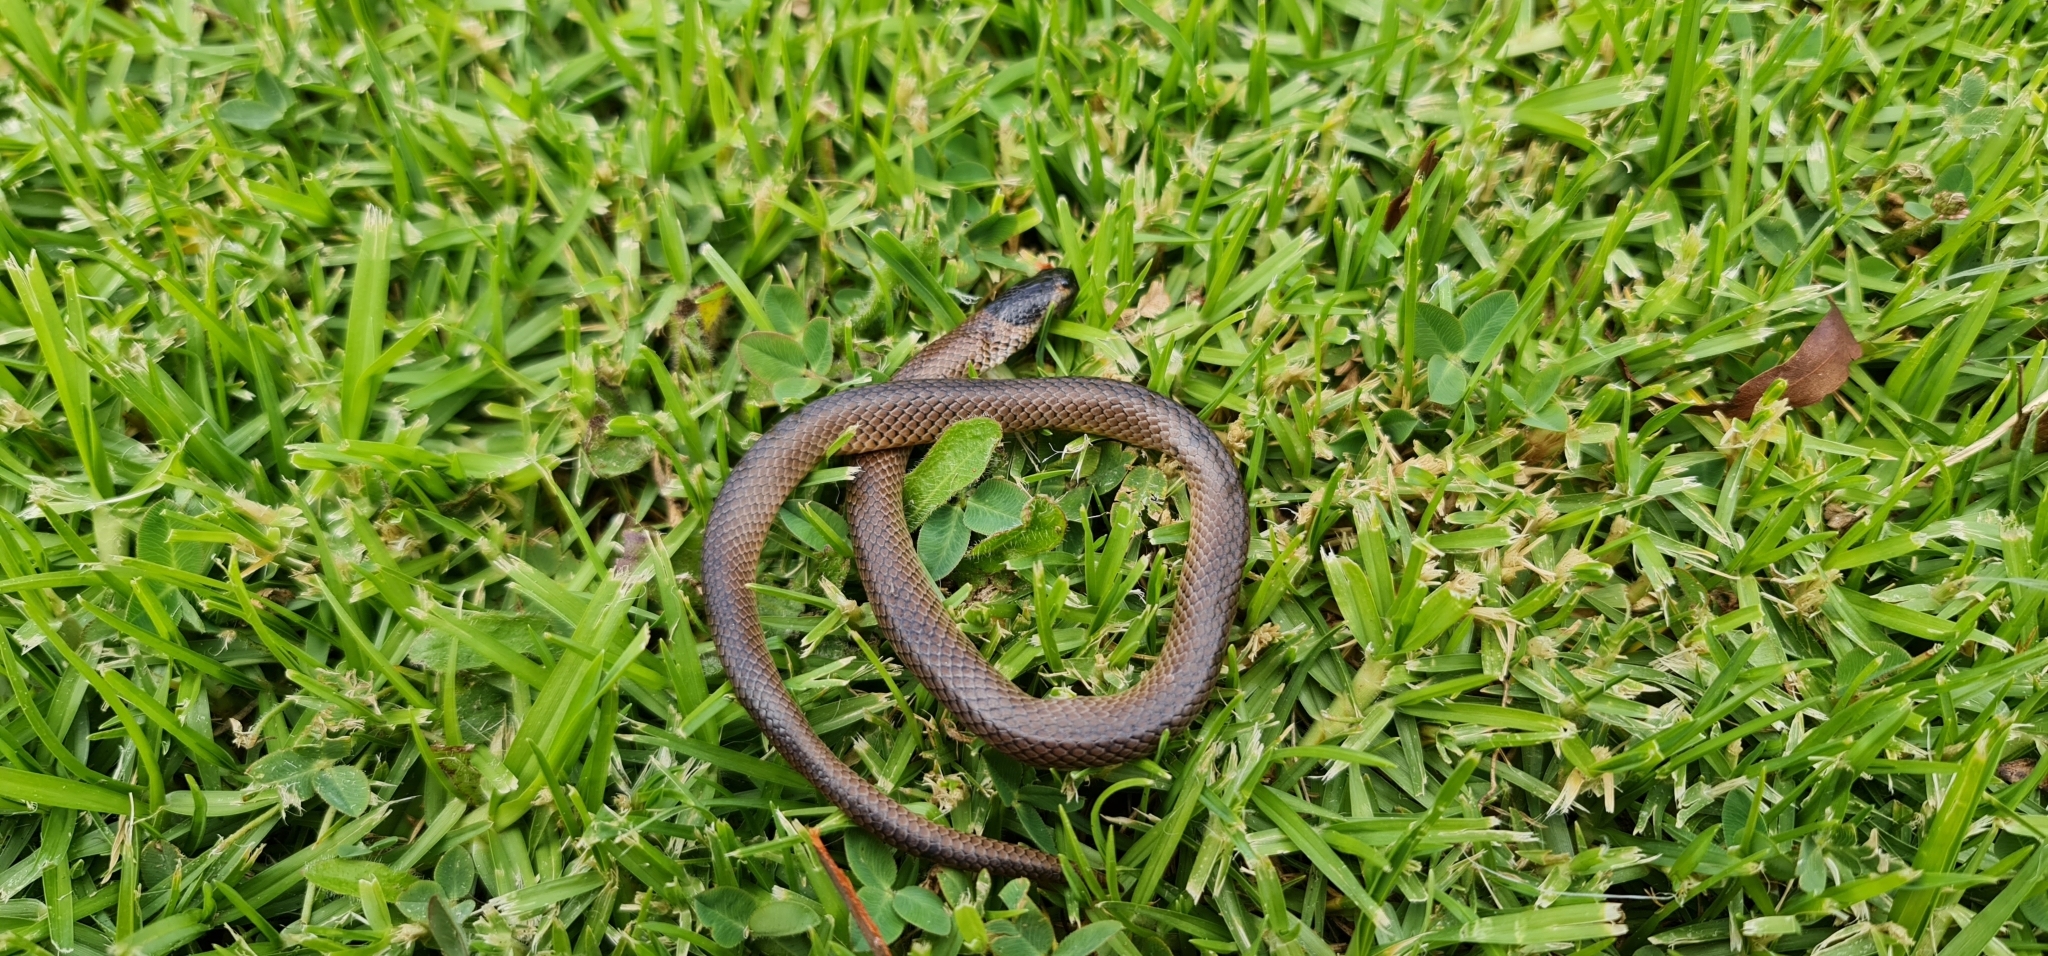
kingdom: Animalia
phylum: Chordata
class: Squamata
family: Elapidae
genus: Suta
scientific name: Suta flagellum
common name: Little whip snake
